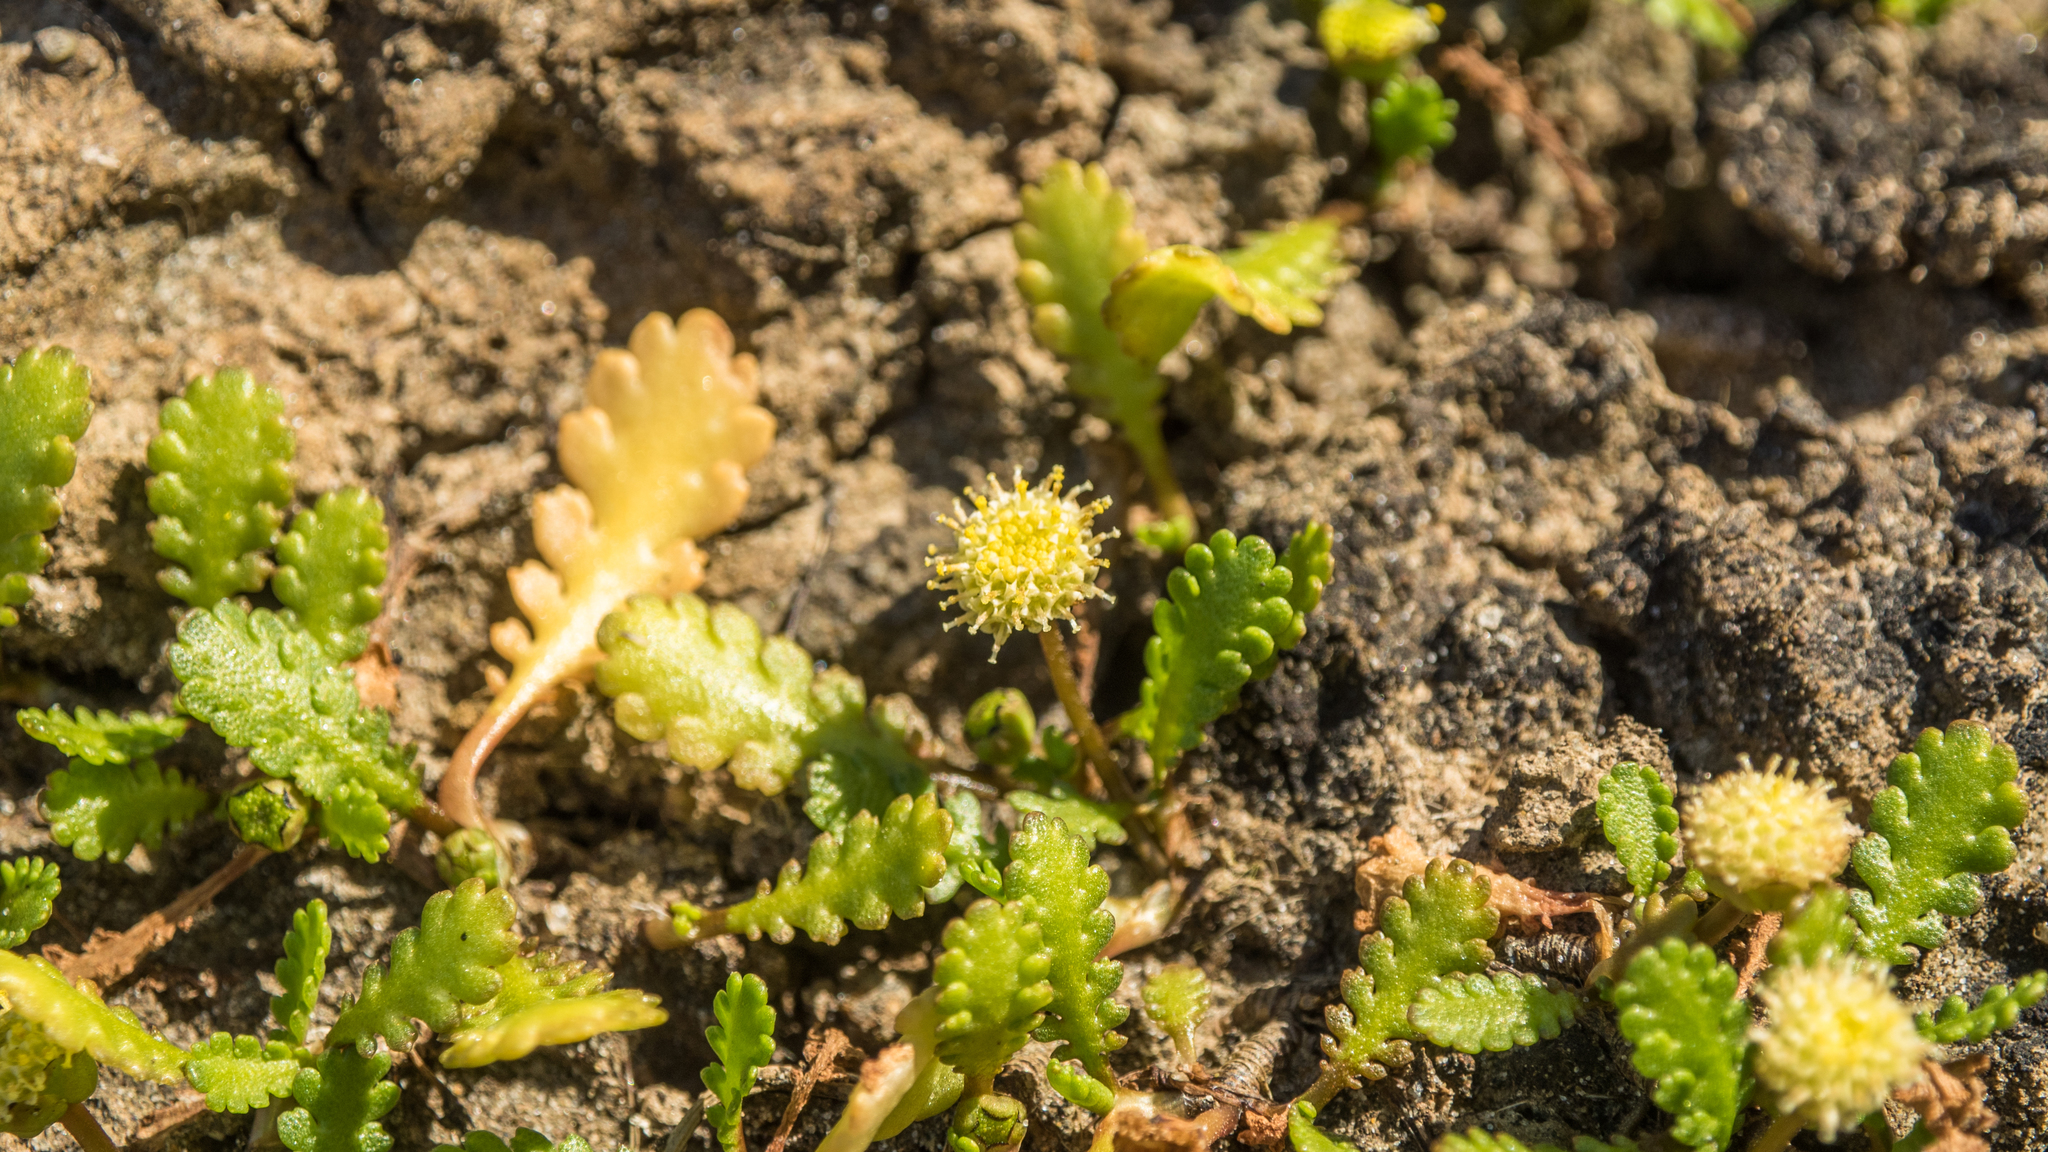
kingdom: Plantae
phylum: Tracheophyta
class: Magnoliopsida
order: Asterales
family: Asteraceae
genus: Leptinella
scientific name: Leptinella dioica
